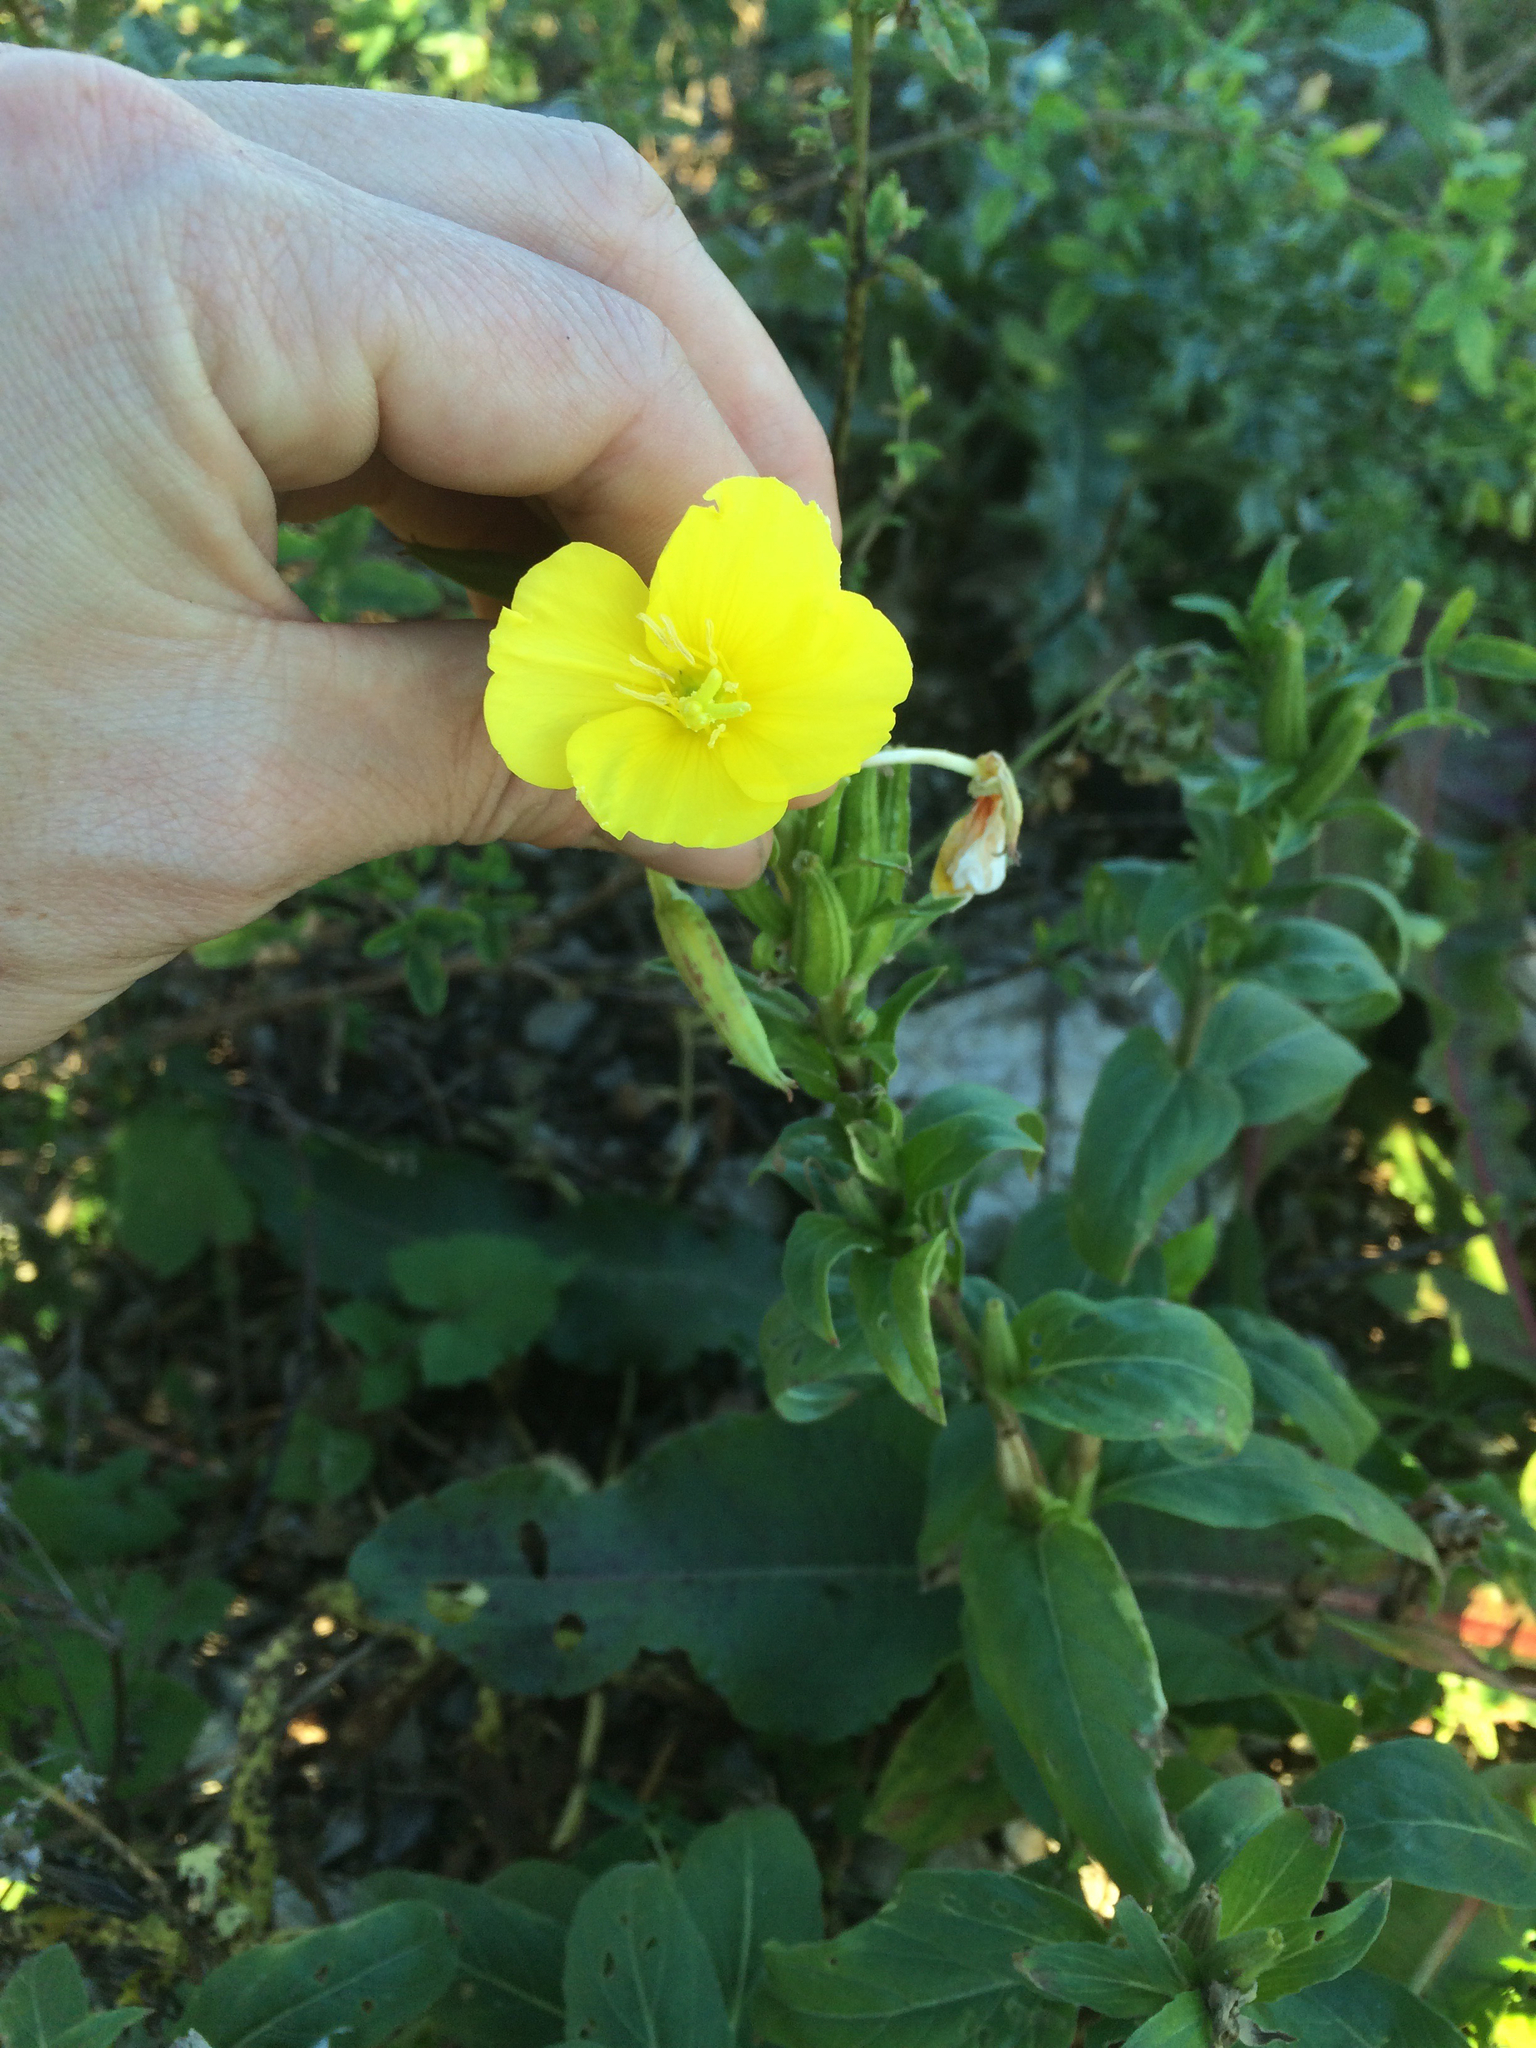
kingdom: Plantae
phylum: Tracheophyta
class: Magnoliopsida
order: Myrtales
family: Onagraceae
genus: Oenothera
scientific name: Oenothera biennis
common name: Common evening-primrose
